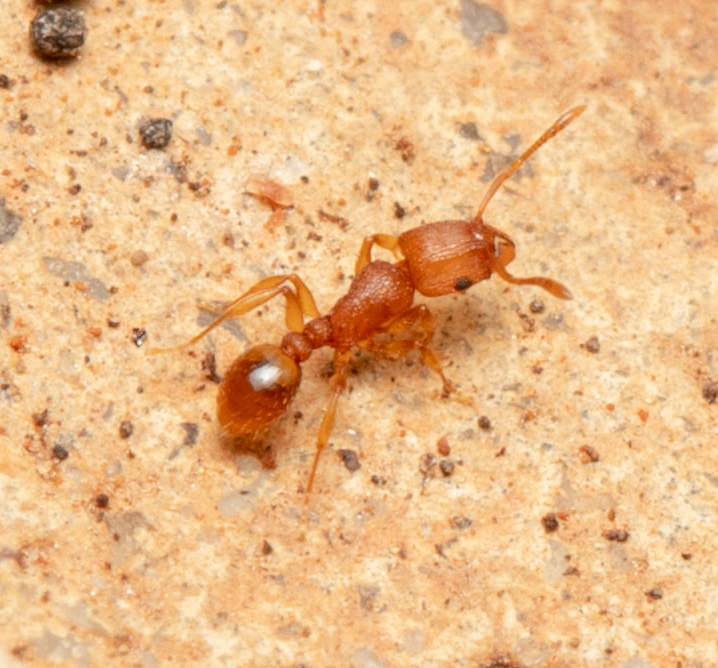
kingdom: Animalia
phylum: Arthropoda
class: Insecta
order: Hymenoptera
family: Formicidae
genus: Tetramorium
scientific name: Tetramorium simillimum
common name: Ant
